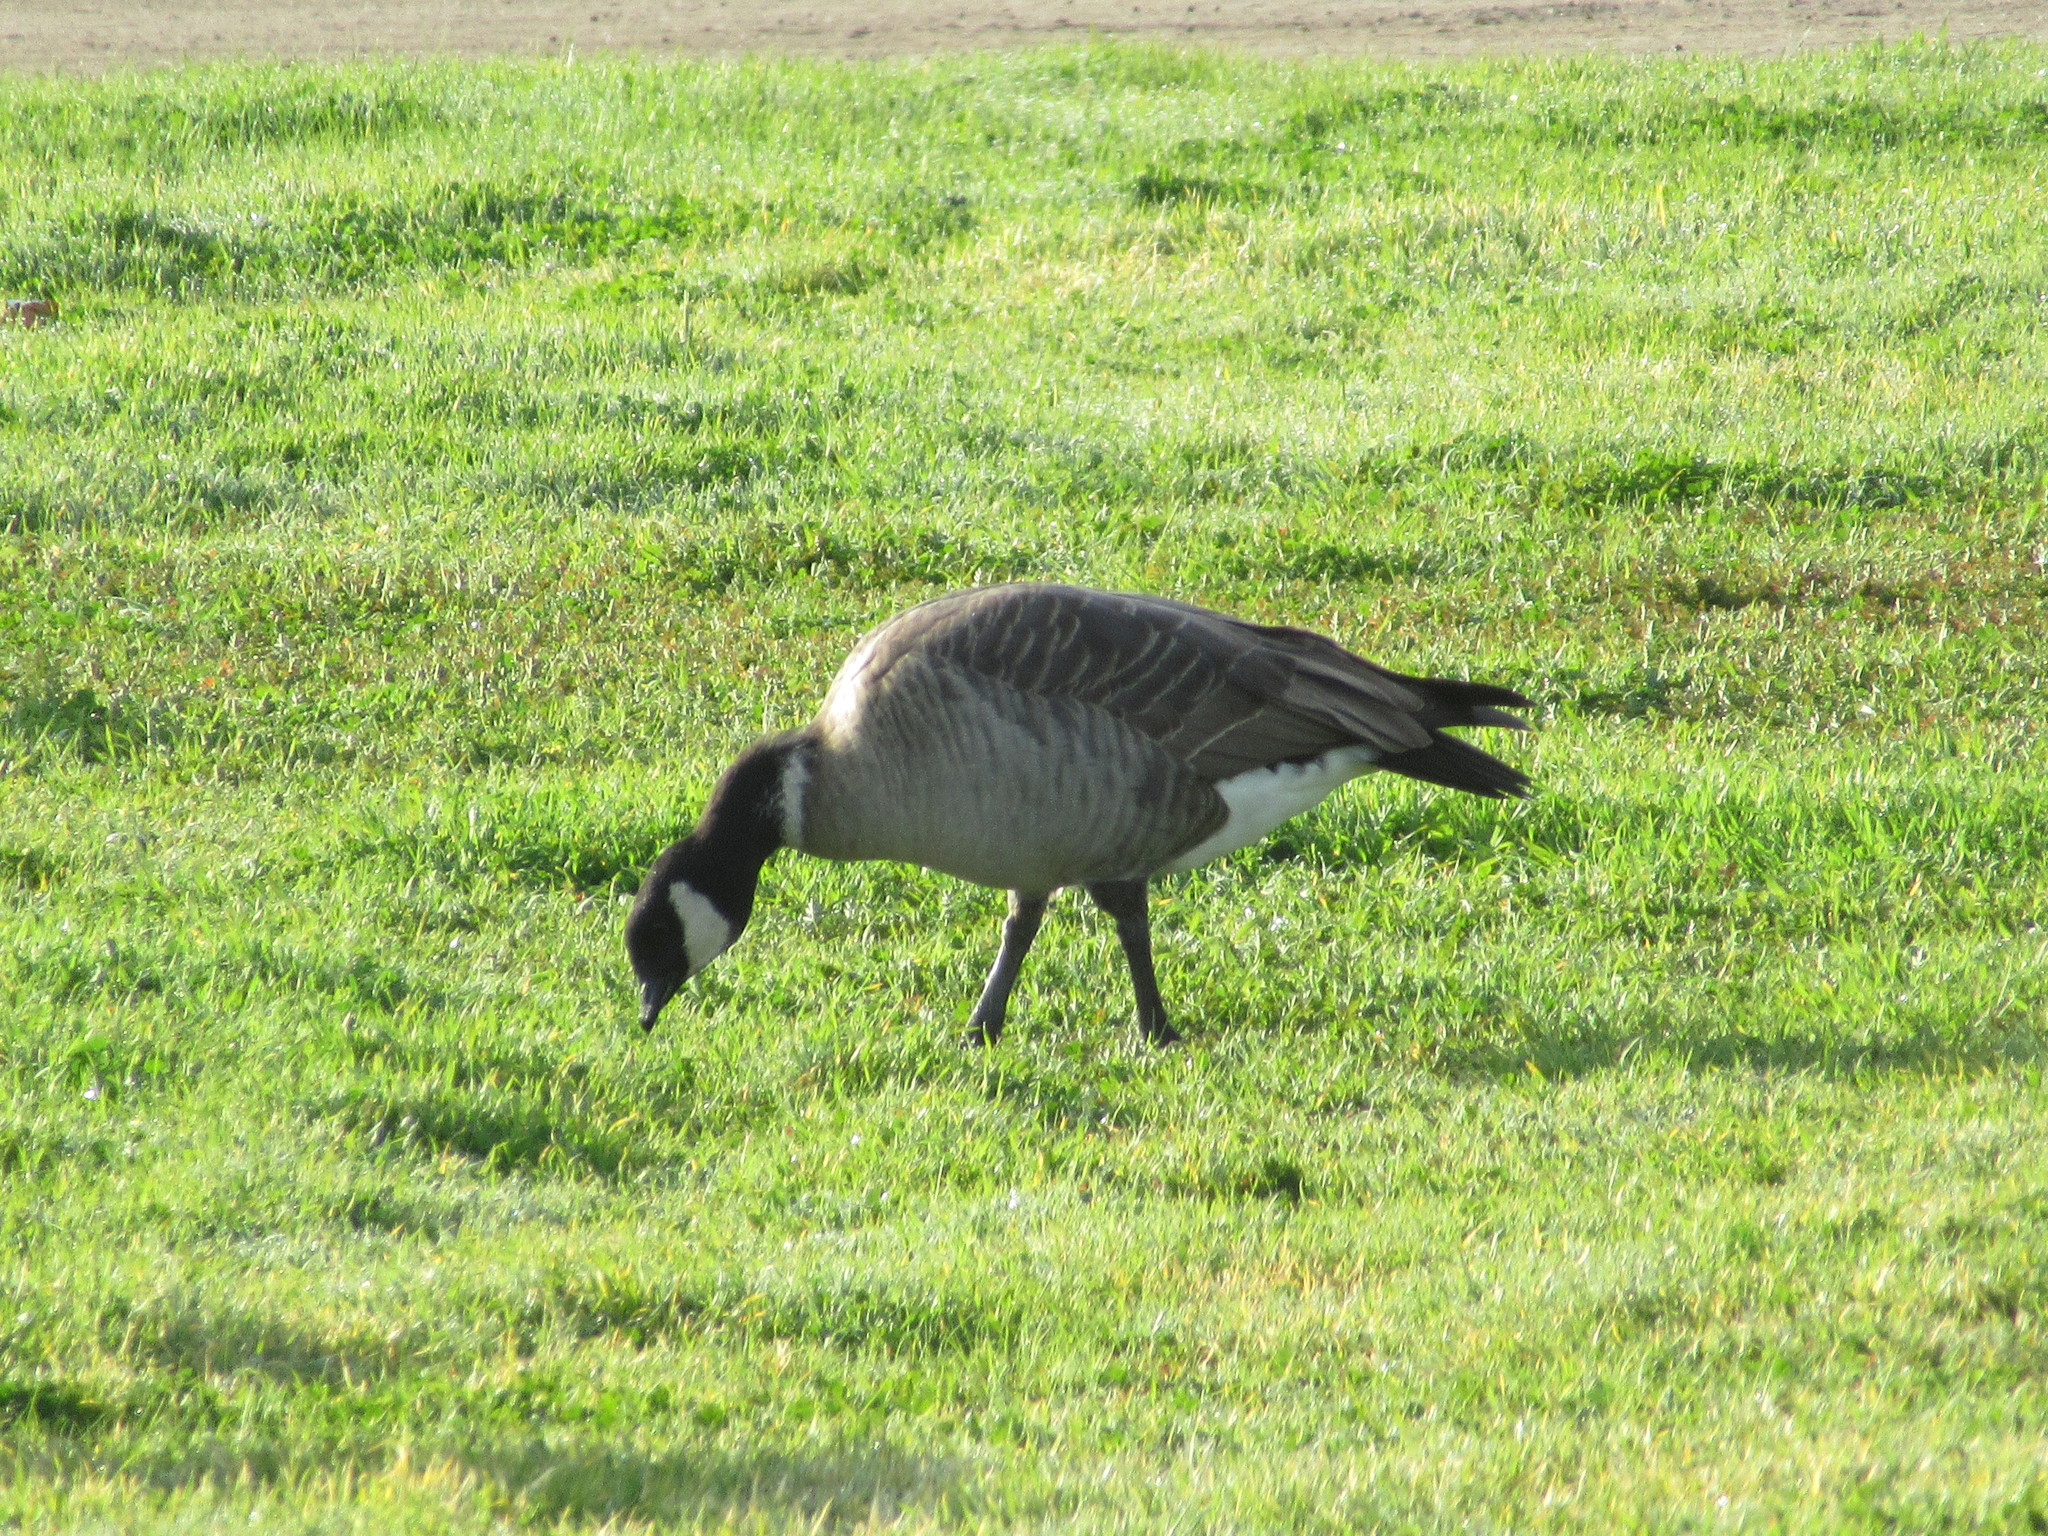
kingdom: Animalia
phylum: Chordata
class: Aves
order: Anseriformes
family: Anatidae
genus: Branta
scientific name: Branta hutchinsii
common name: Cackling goose
